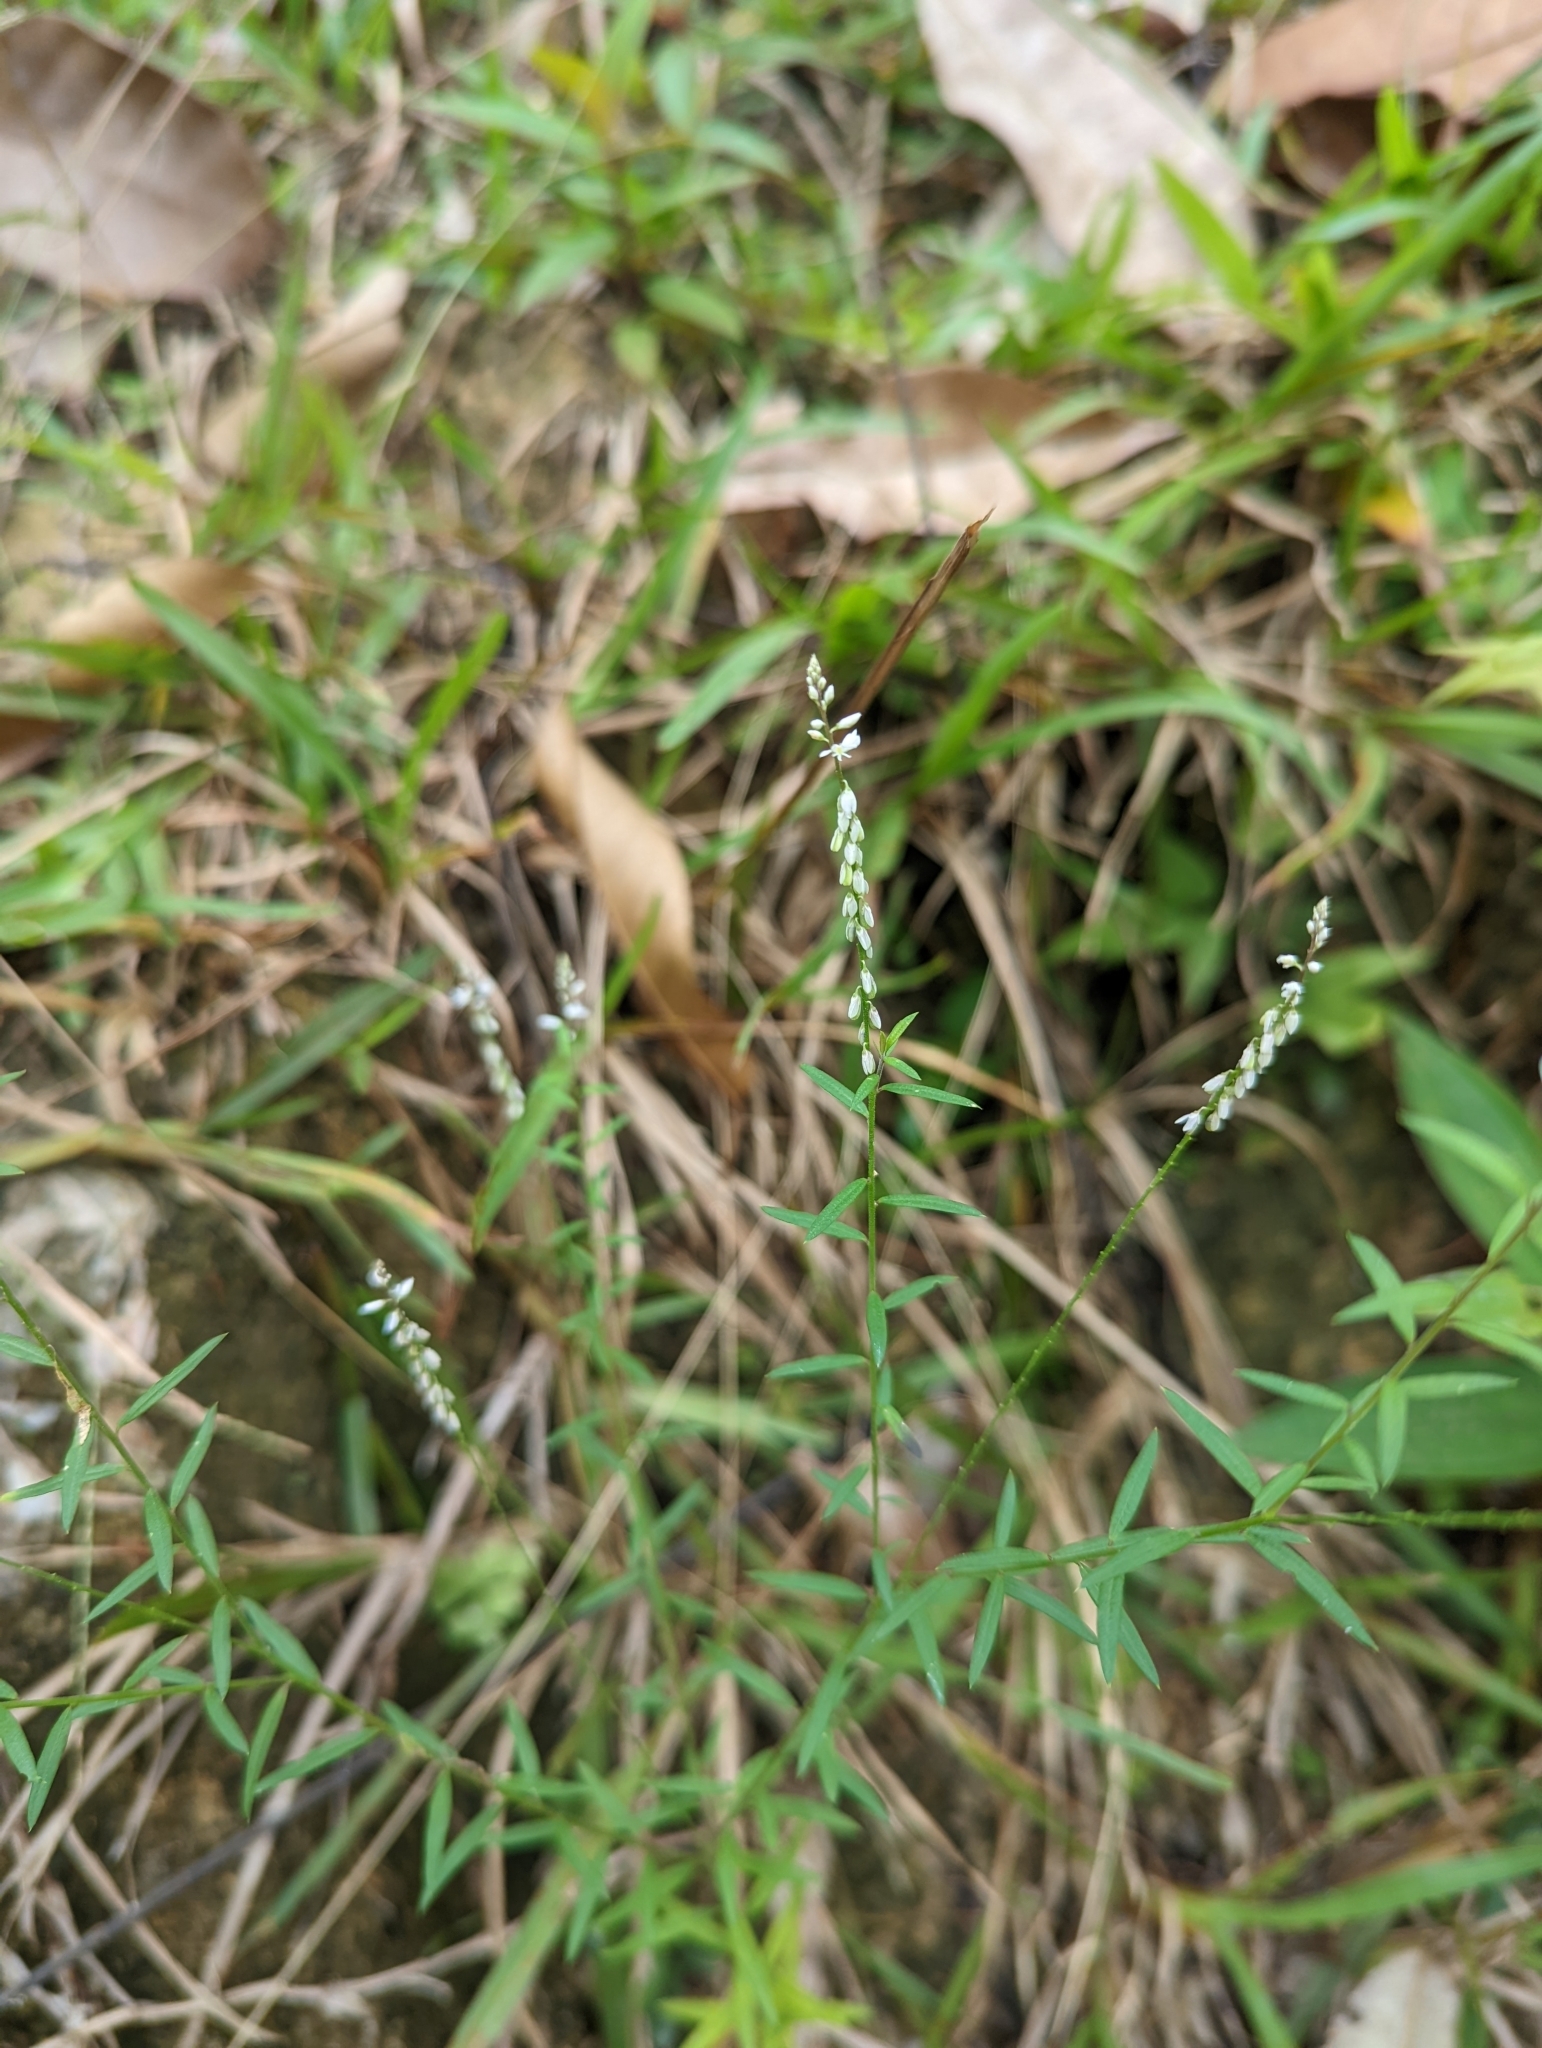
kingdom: Plantae
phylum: Tracheophyta
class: Magnoliopsida
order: Fabales
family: Polygalaceae
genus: Polygala
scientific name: Polygala paniculata
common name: Orosne
